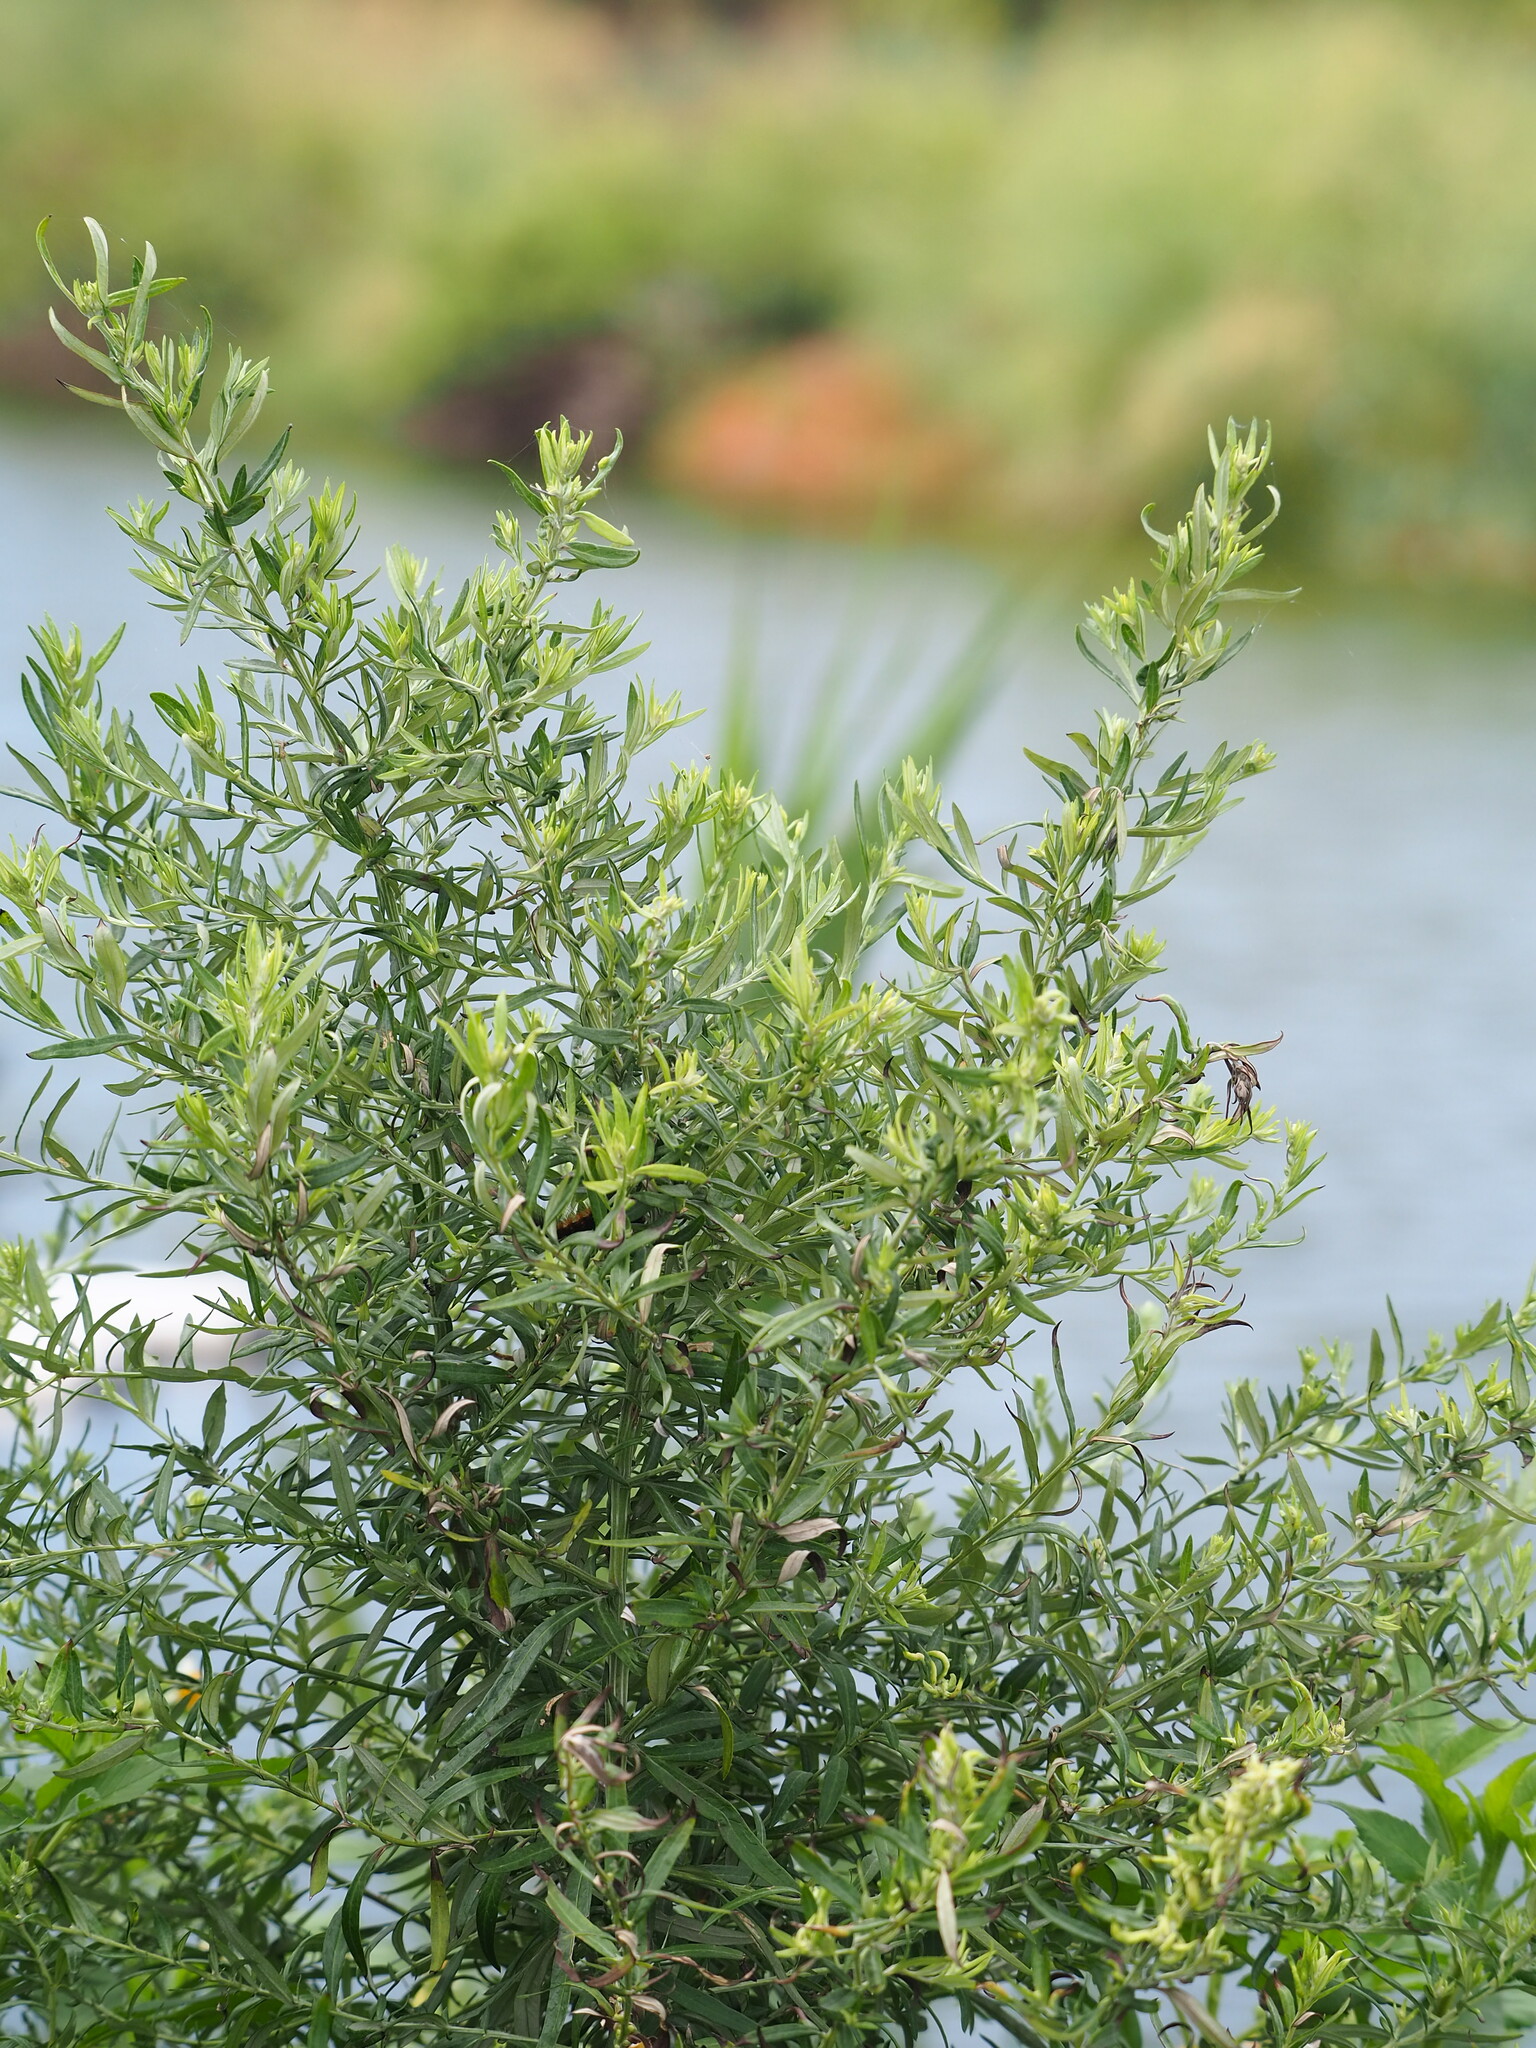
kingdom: Plantae
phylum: Tracheophyta
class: Magnoliopsida
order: Asterales
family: Asteraceae
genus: Artemisia
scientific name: Artemisia indica
